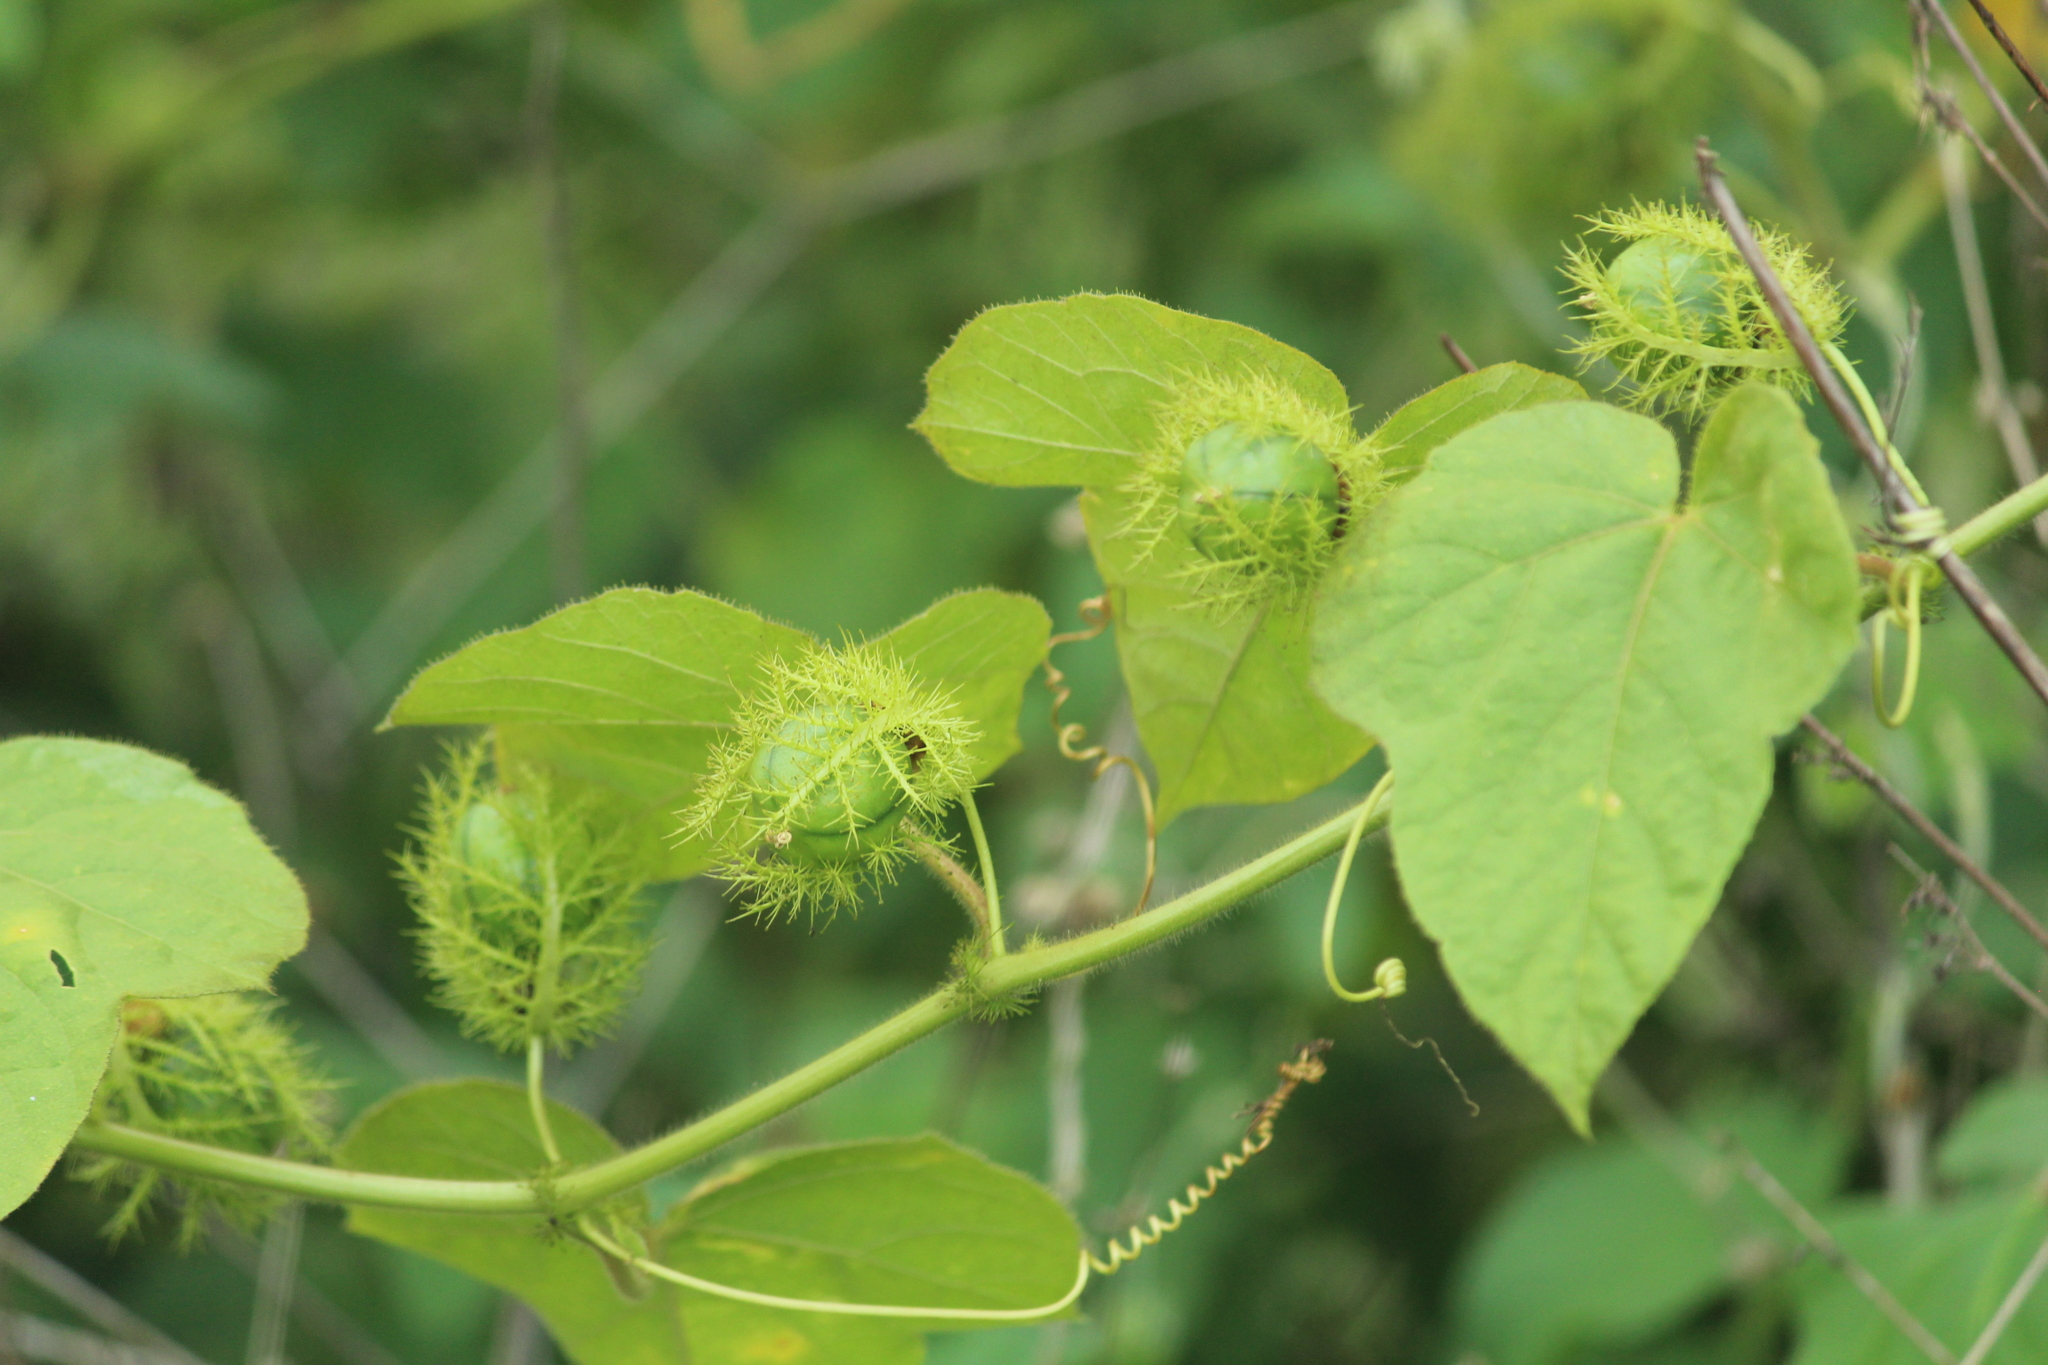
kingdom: Plantae
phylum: Tracheophyta
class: Magnoliopsida
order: Malpighiales
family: Passifloraceae
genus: Passiflora
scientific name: Passiflora foetida
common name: Fetid passionflower
